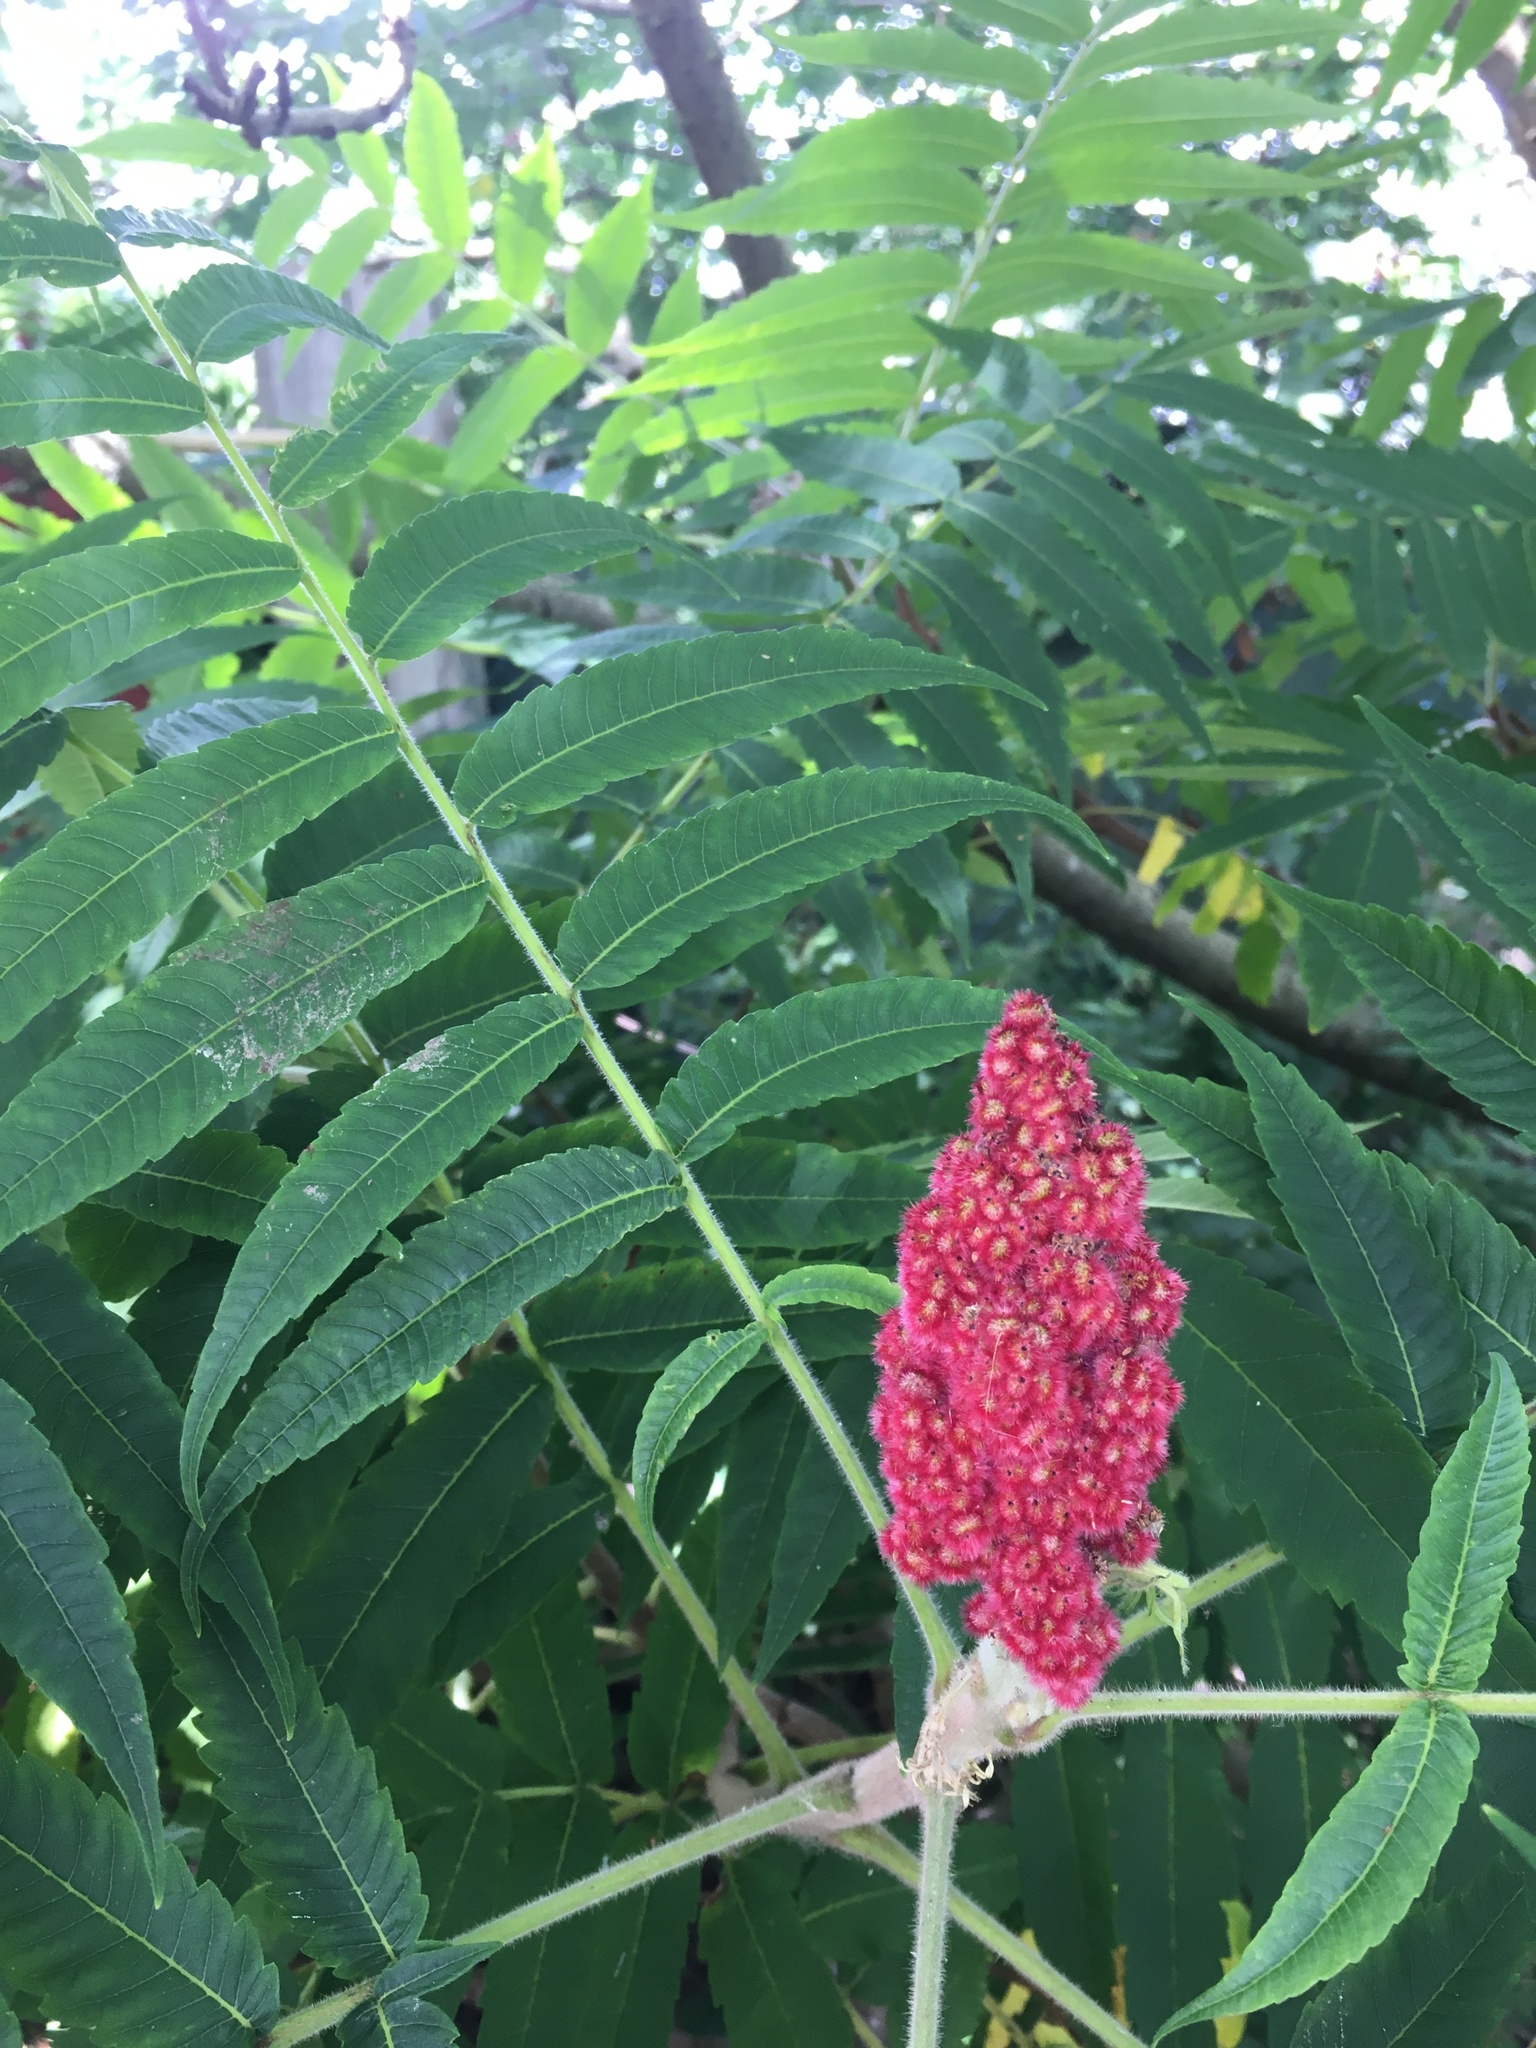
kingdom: Plantae
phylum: Tracheophyta
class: Magnoliopsida
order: Sapindales
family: Anacardiaceae
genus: Rhus
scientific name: Rhus typhina
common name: Staghorn sumac
